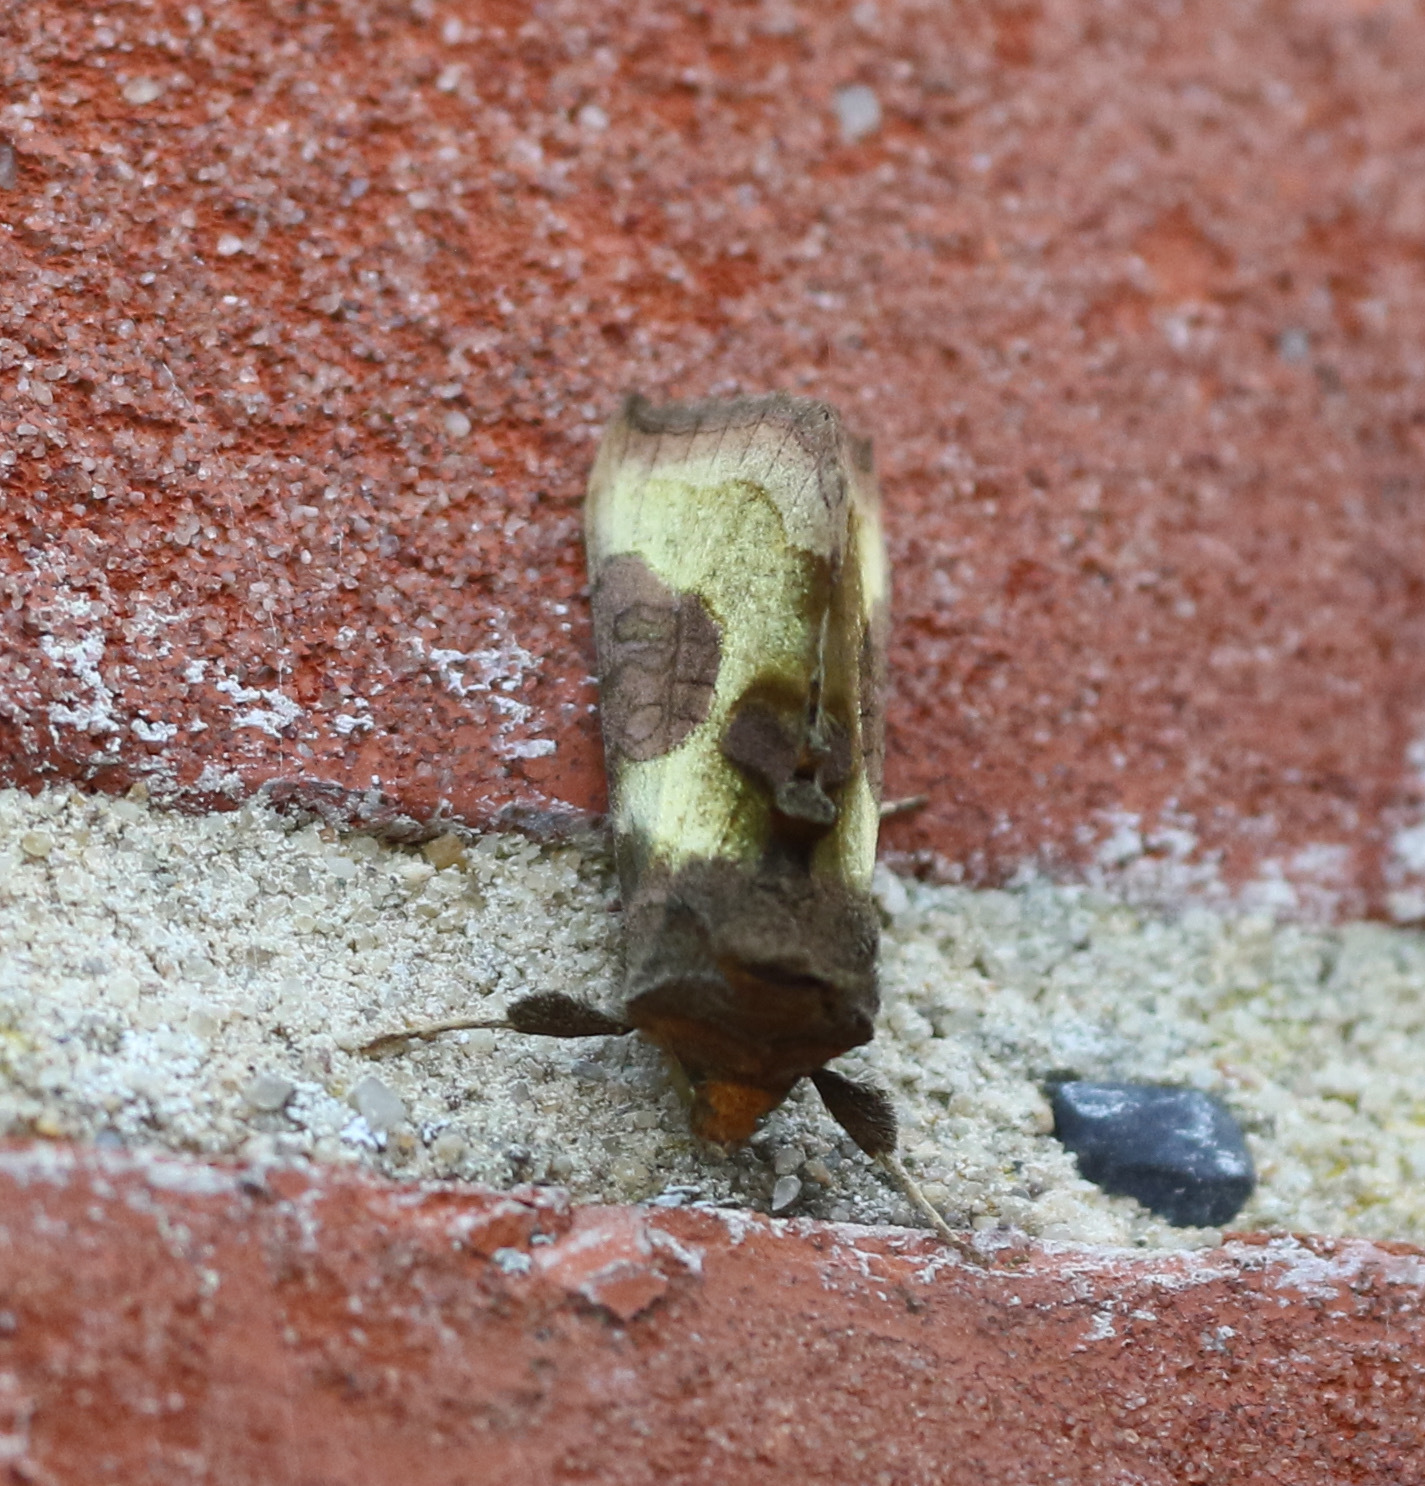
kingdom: Animalia
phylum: Arthropoda
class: Insecta
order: Lepidoptera
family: Noctuidae
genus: Diachrysia
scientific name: Diachrysia chrysitis
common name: Burnished brass
